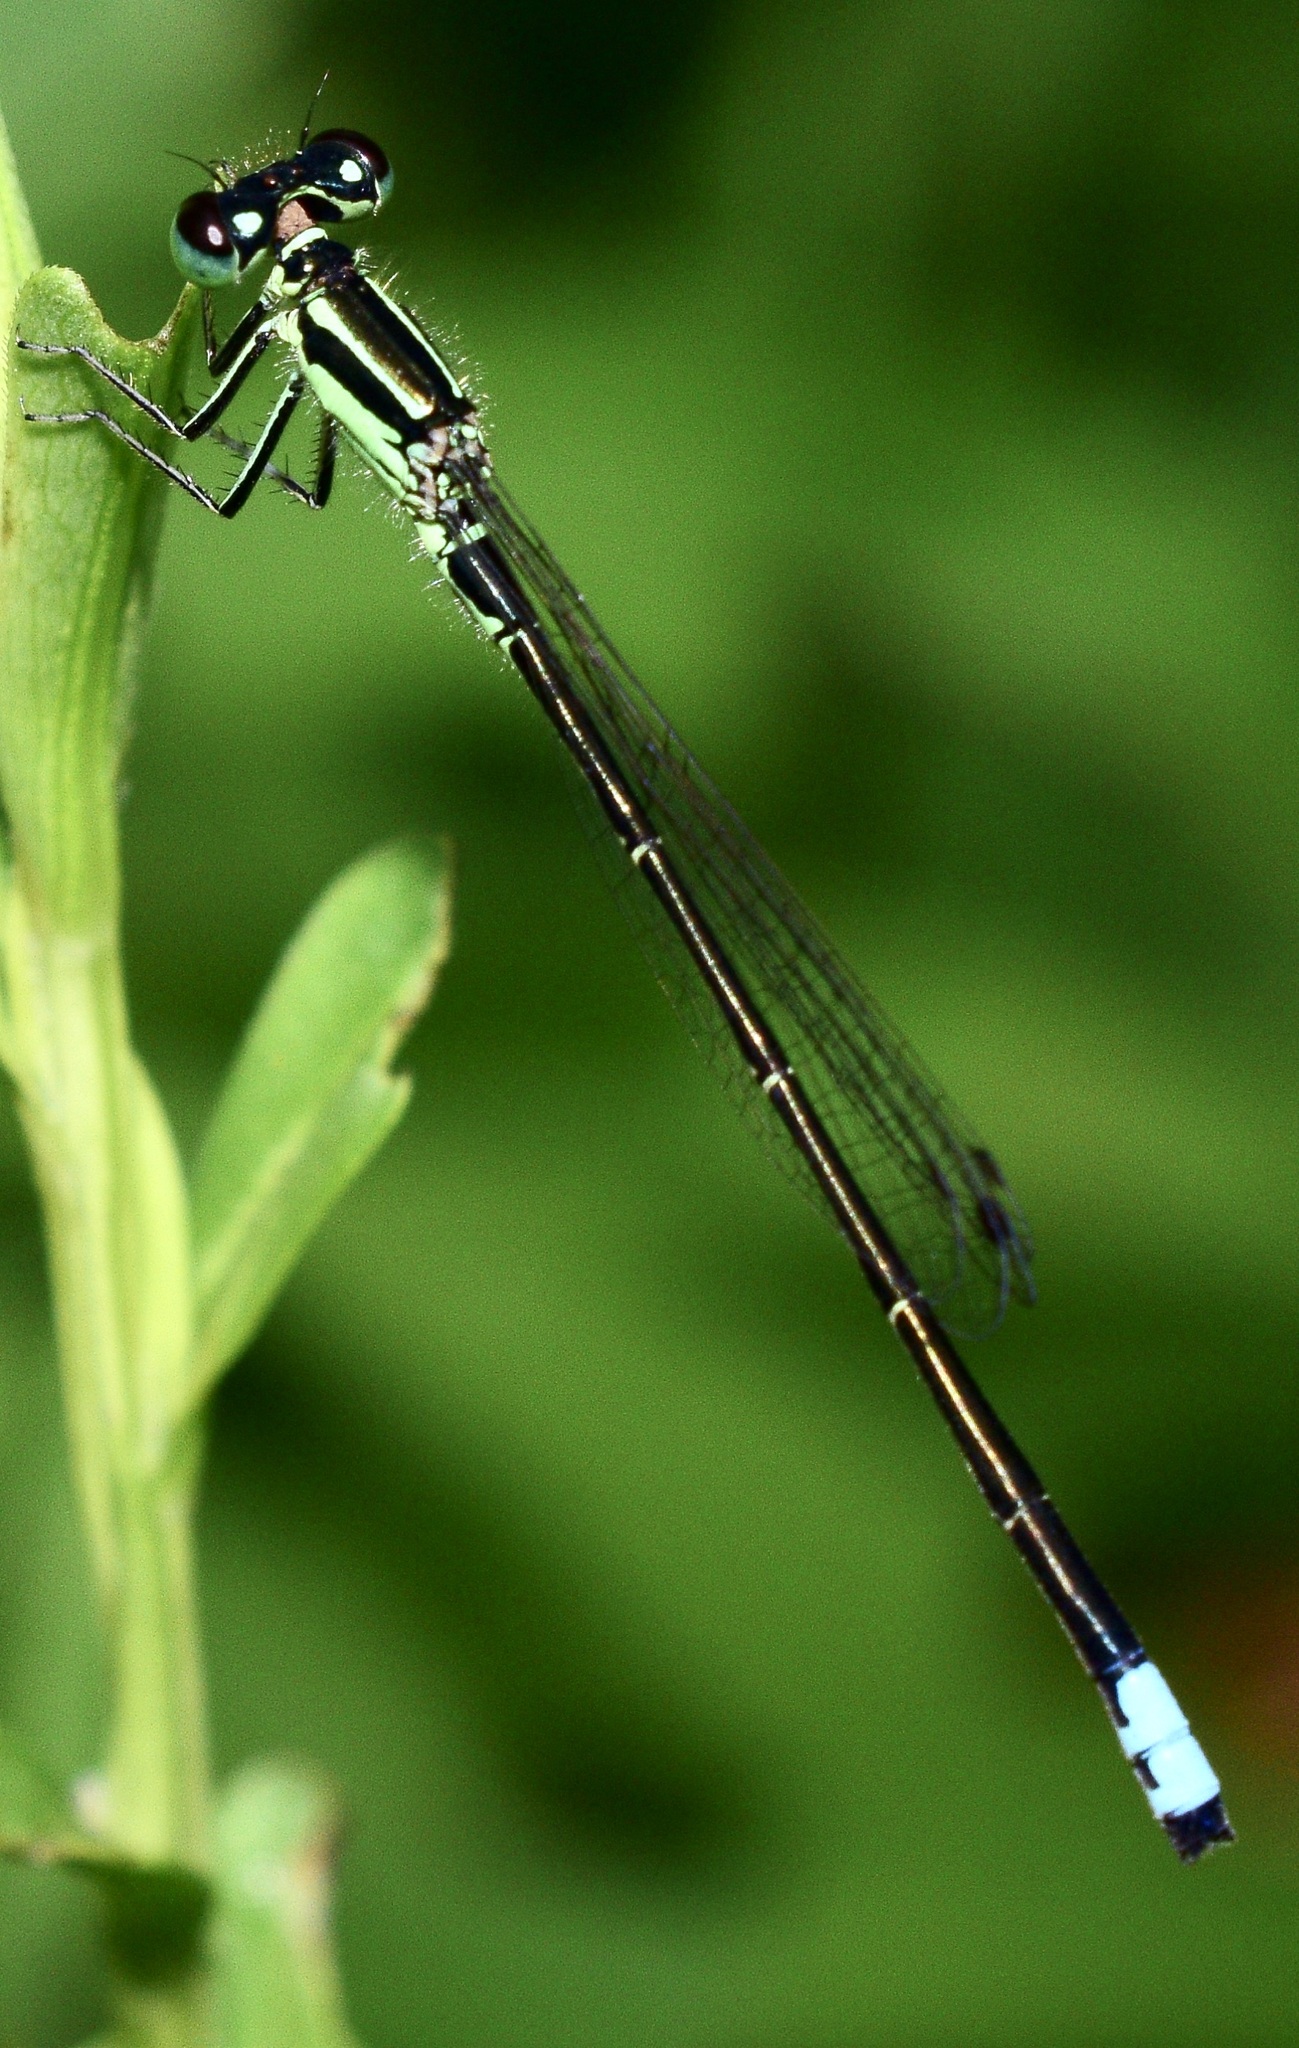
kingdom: Animalia
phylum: Arthropoda
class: Insecta
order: Odonata
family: Coenagrionidae
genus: Ischnura
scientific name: Ischnura verticalis
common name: Eastern forktail
